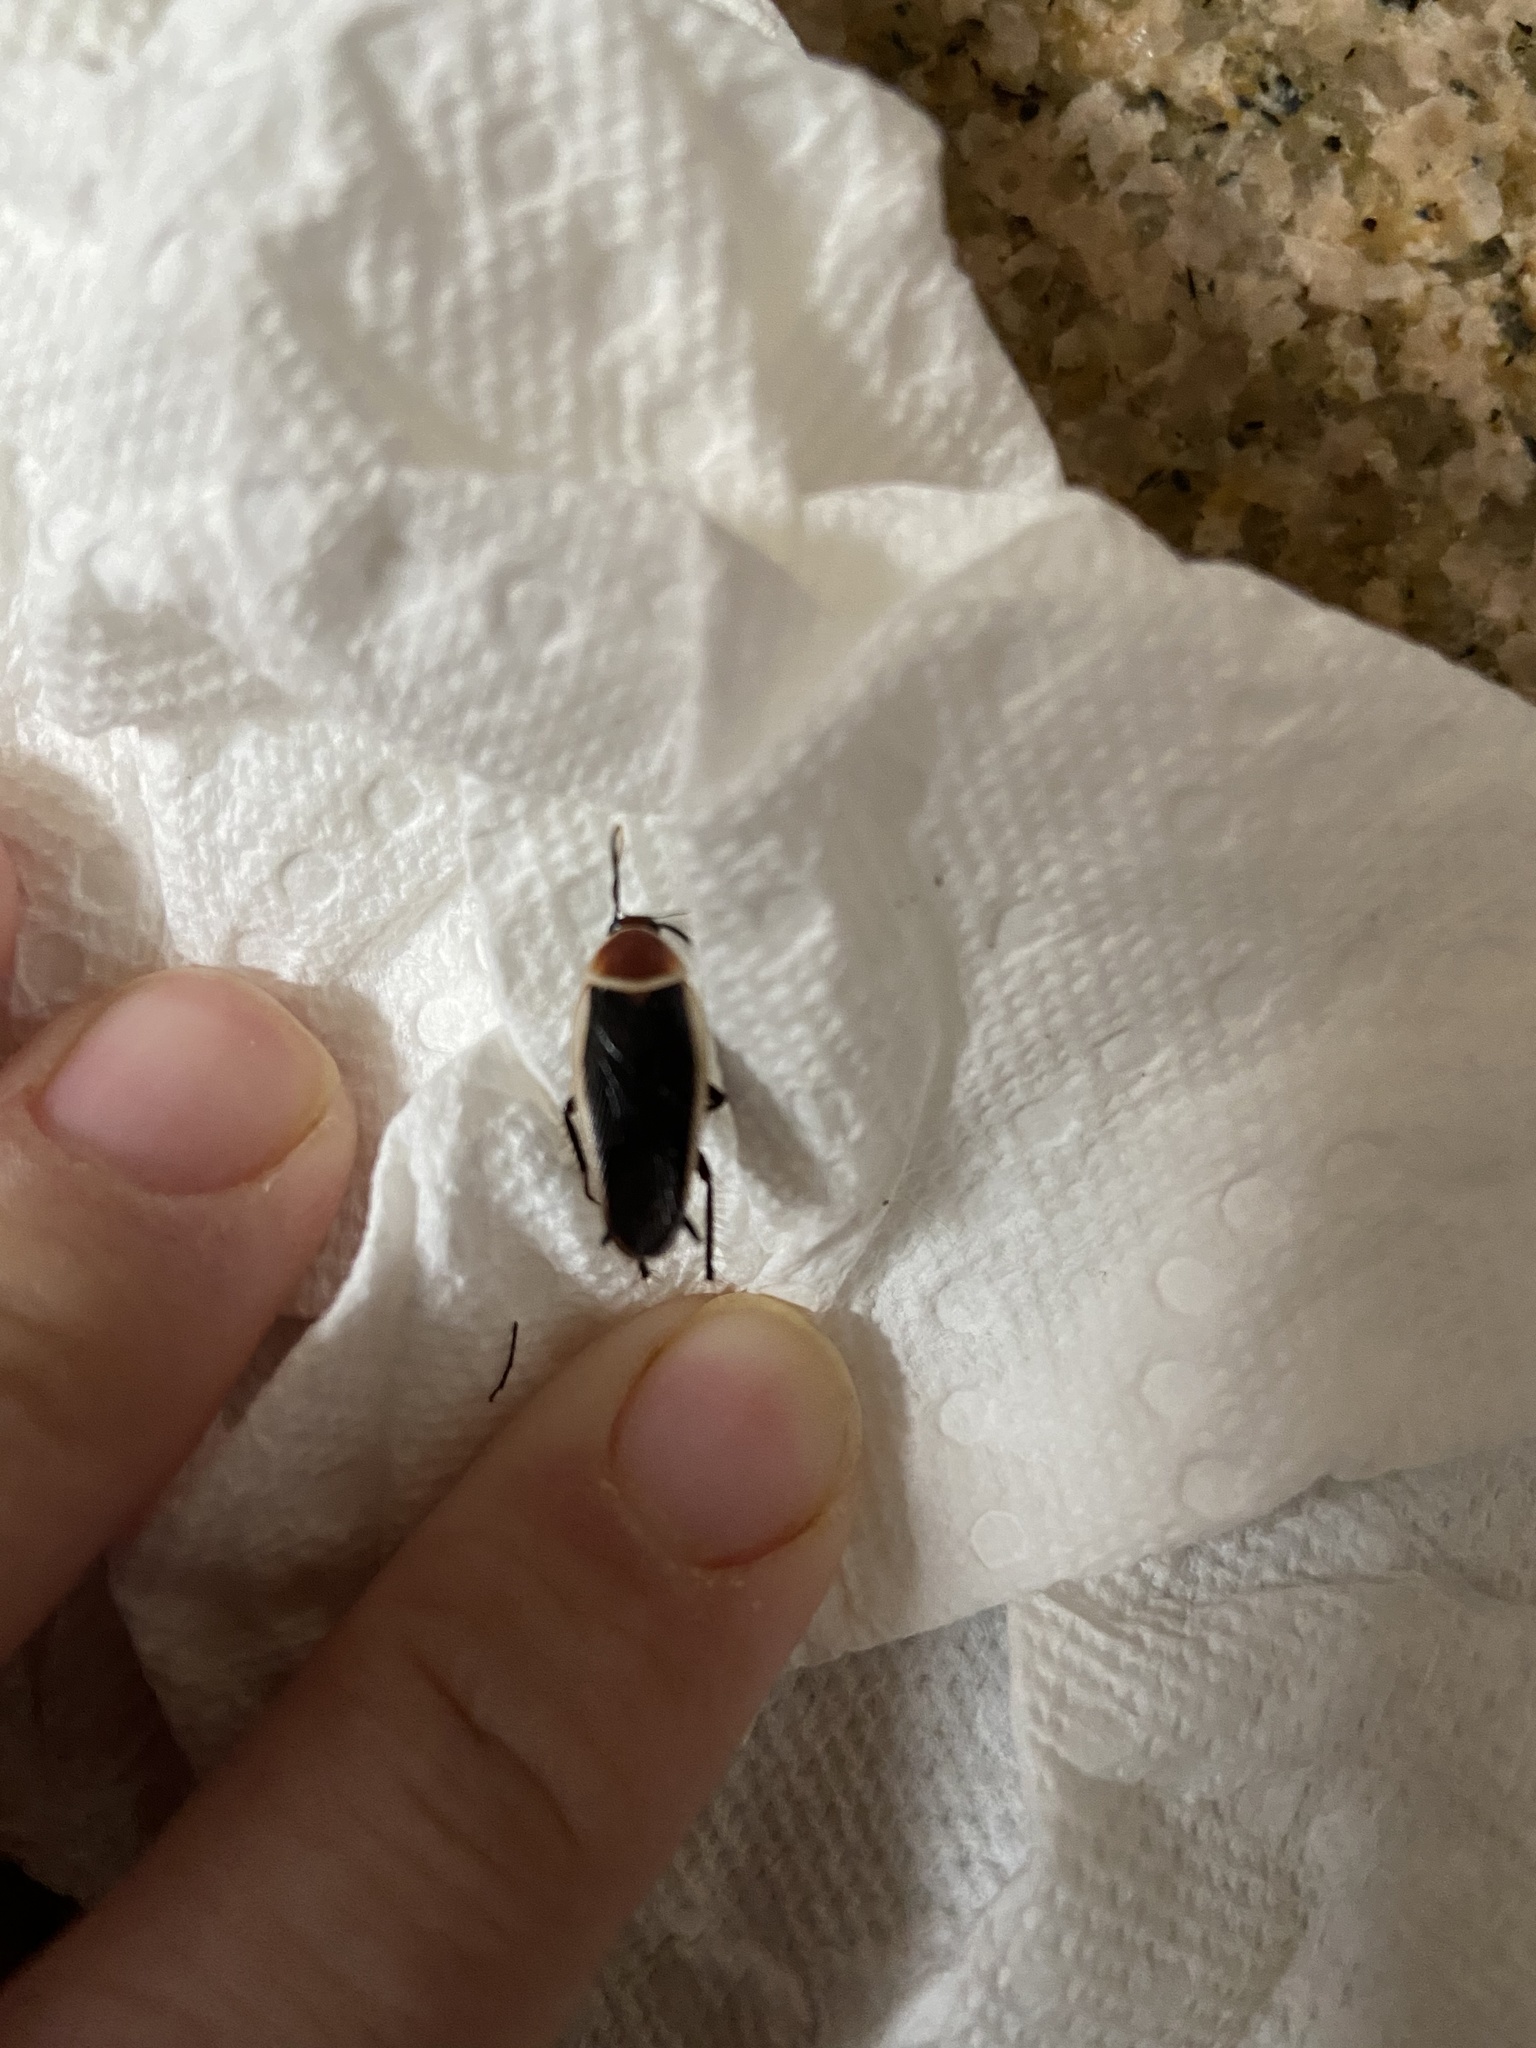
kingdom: Animalia
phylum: Arthropoda
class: Insecta
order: Blattodea
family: Ectobiidae
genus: Pseudomops
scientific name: Pseudomops septentrionalis
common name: Pale-bordered field cockroach
